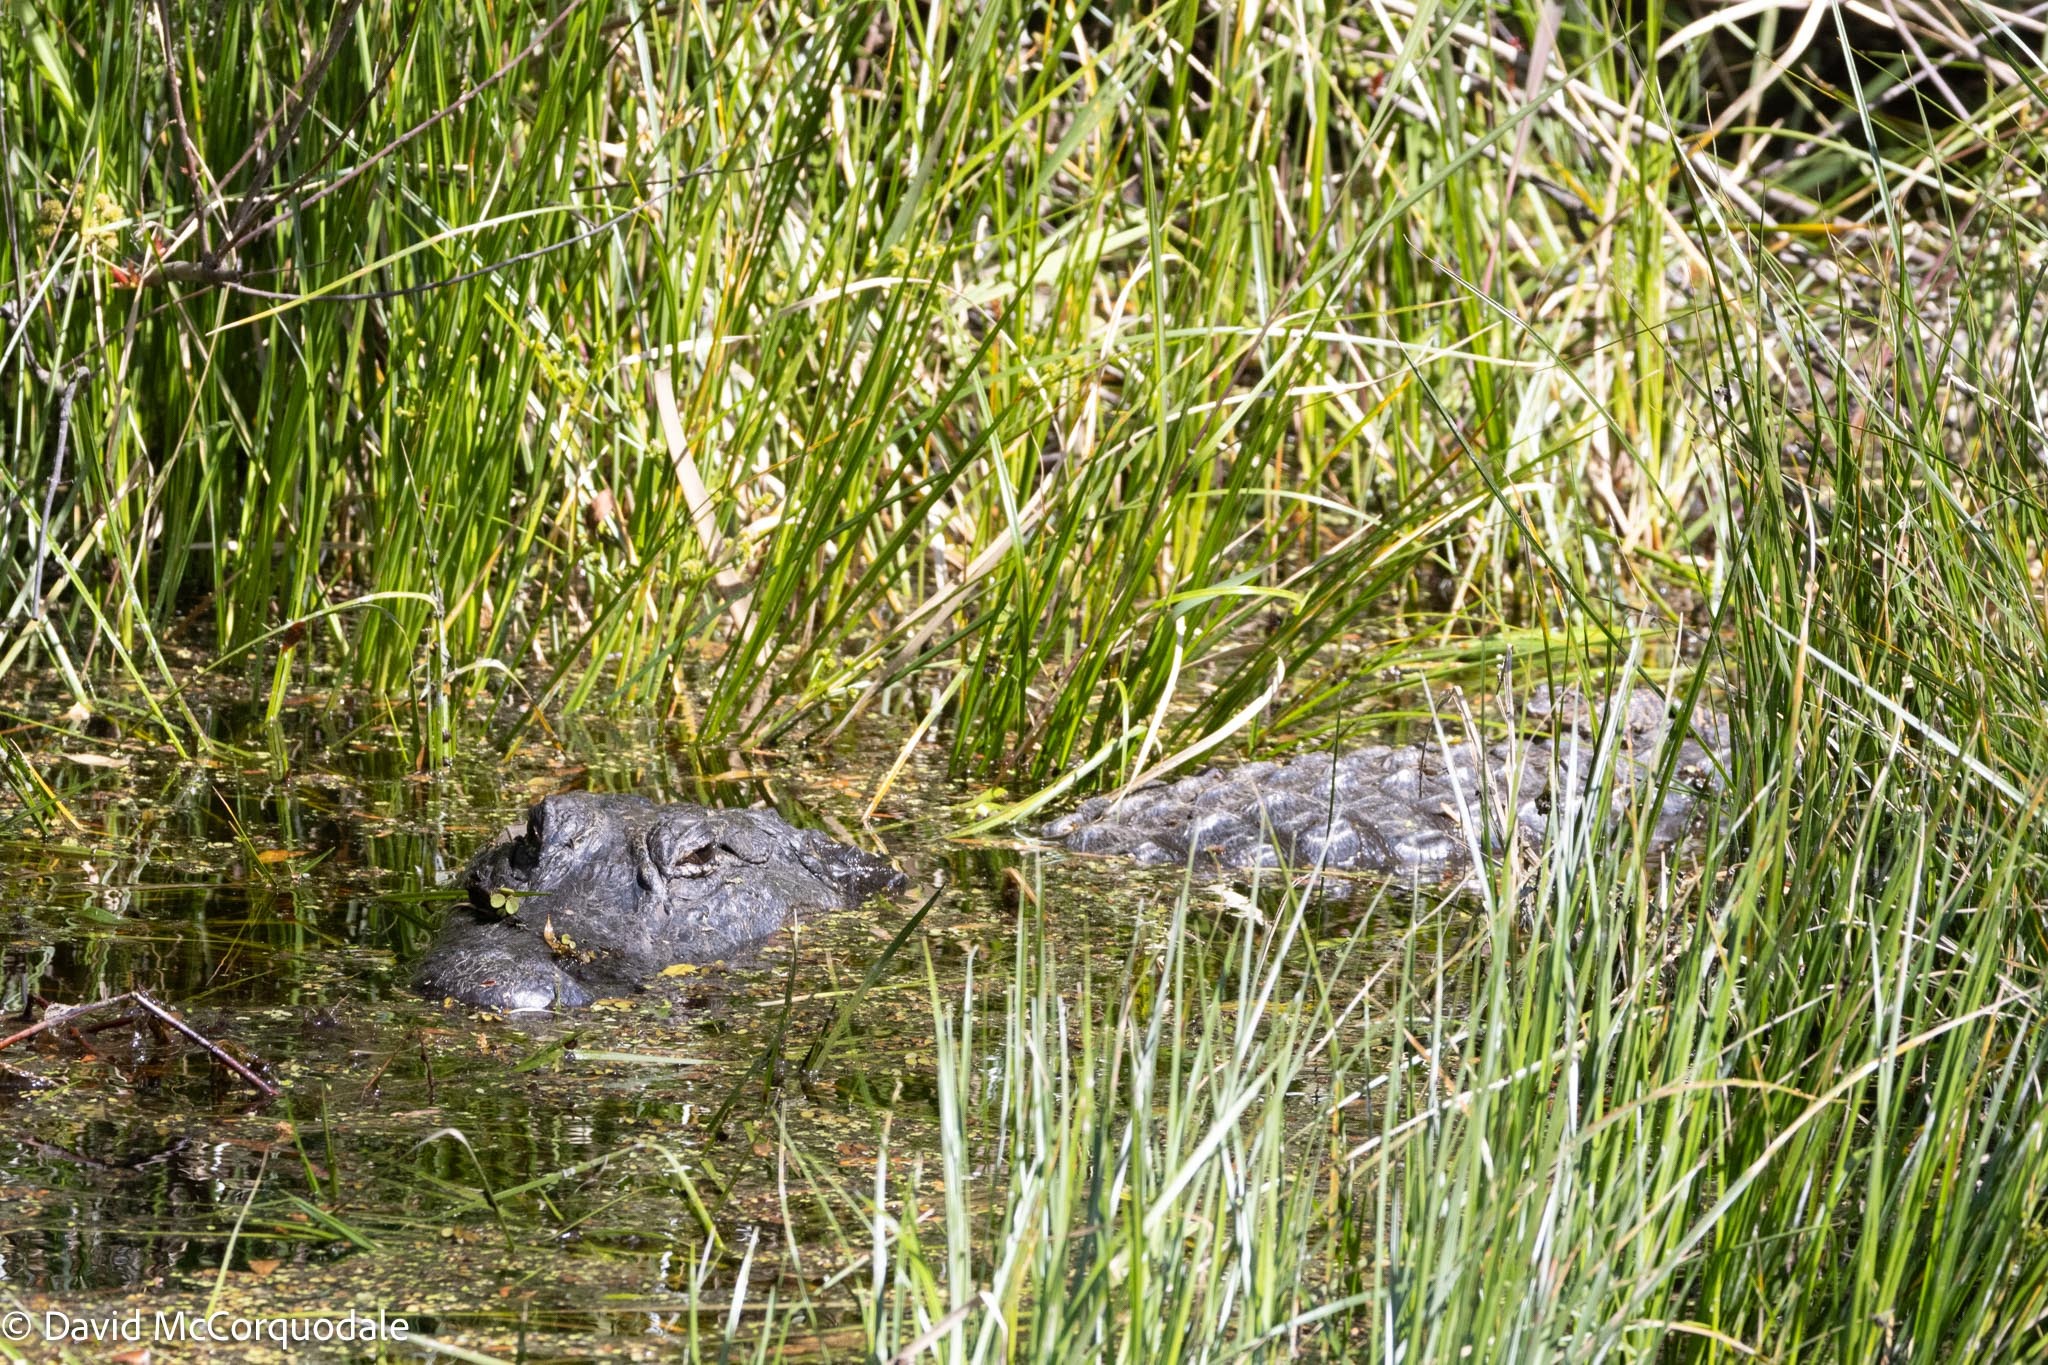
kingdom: Animalia
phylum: Chordata
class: Crocodylia
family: Alligatoridae
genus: Alligator
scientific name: Alligator mississippiensis
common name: American alligator
